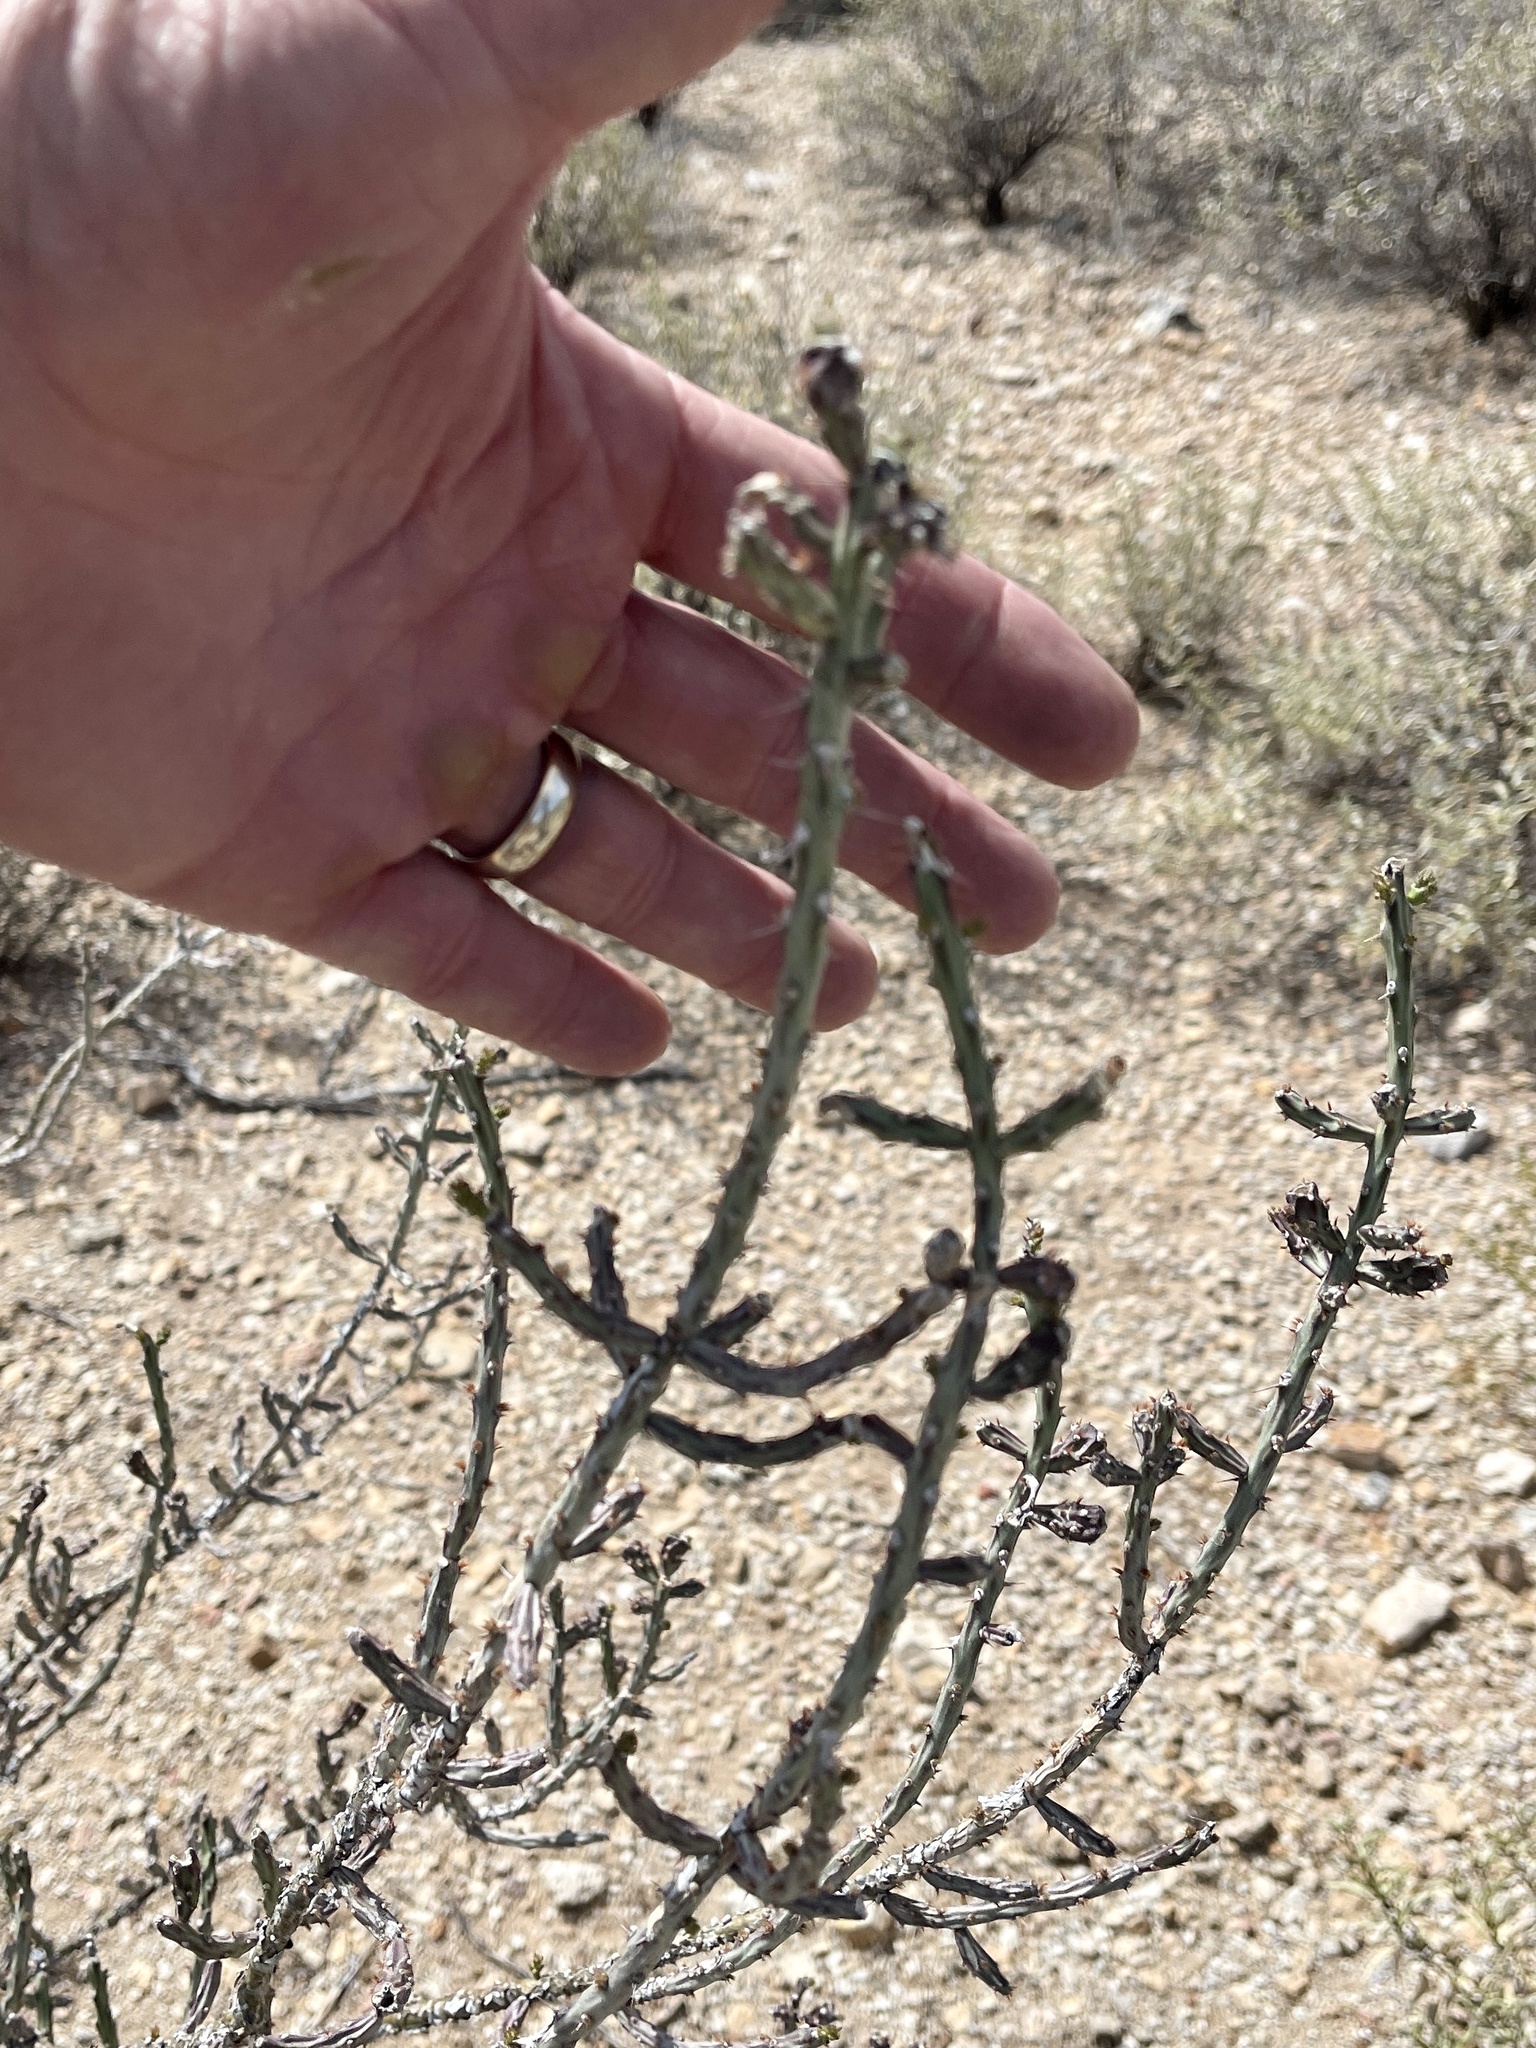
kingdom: Plantae
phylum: Tracheophyta
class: Magnoliopsida
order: Caryophyllales
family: Cactaceae
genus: Cylindropuntia
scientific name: Cylindropuntia leptocaulis
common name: Christmas cactus
